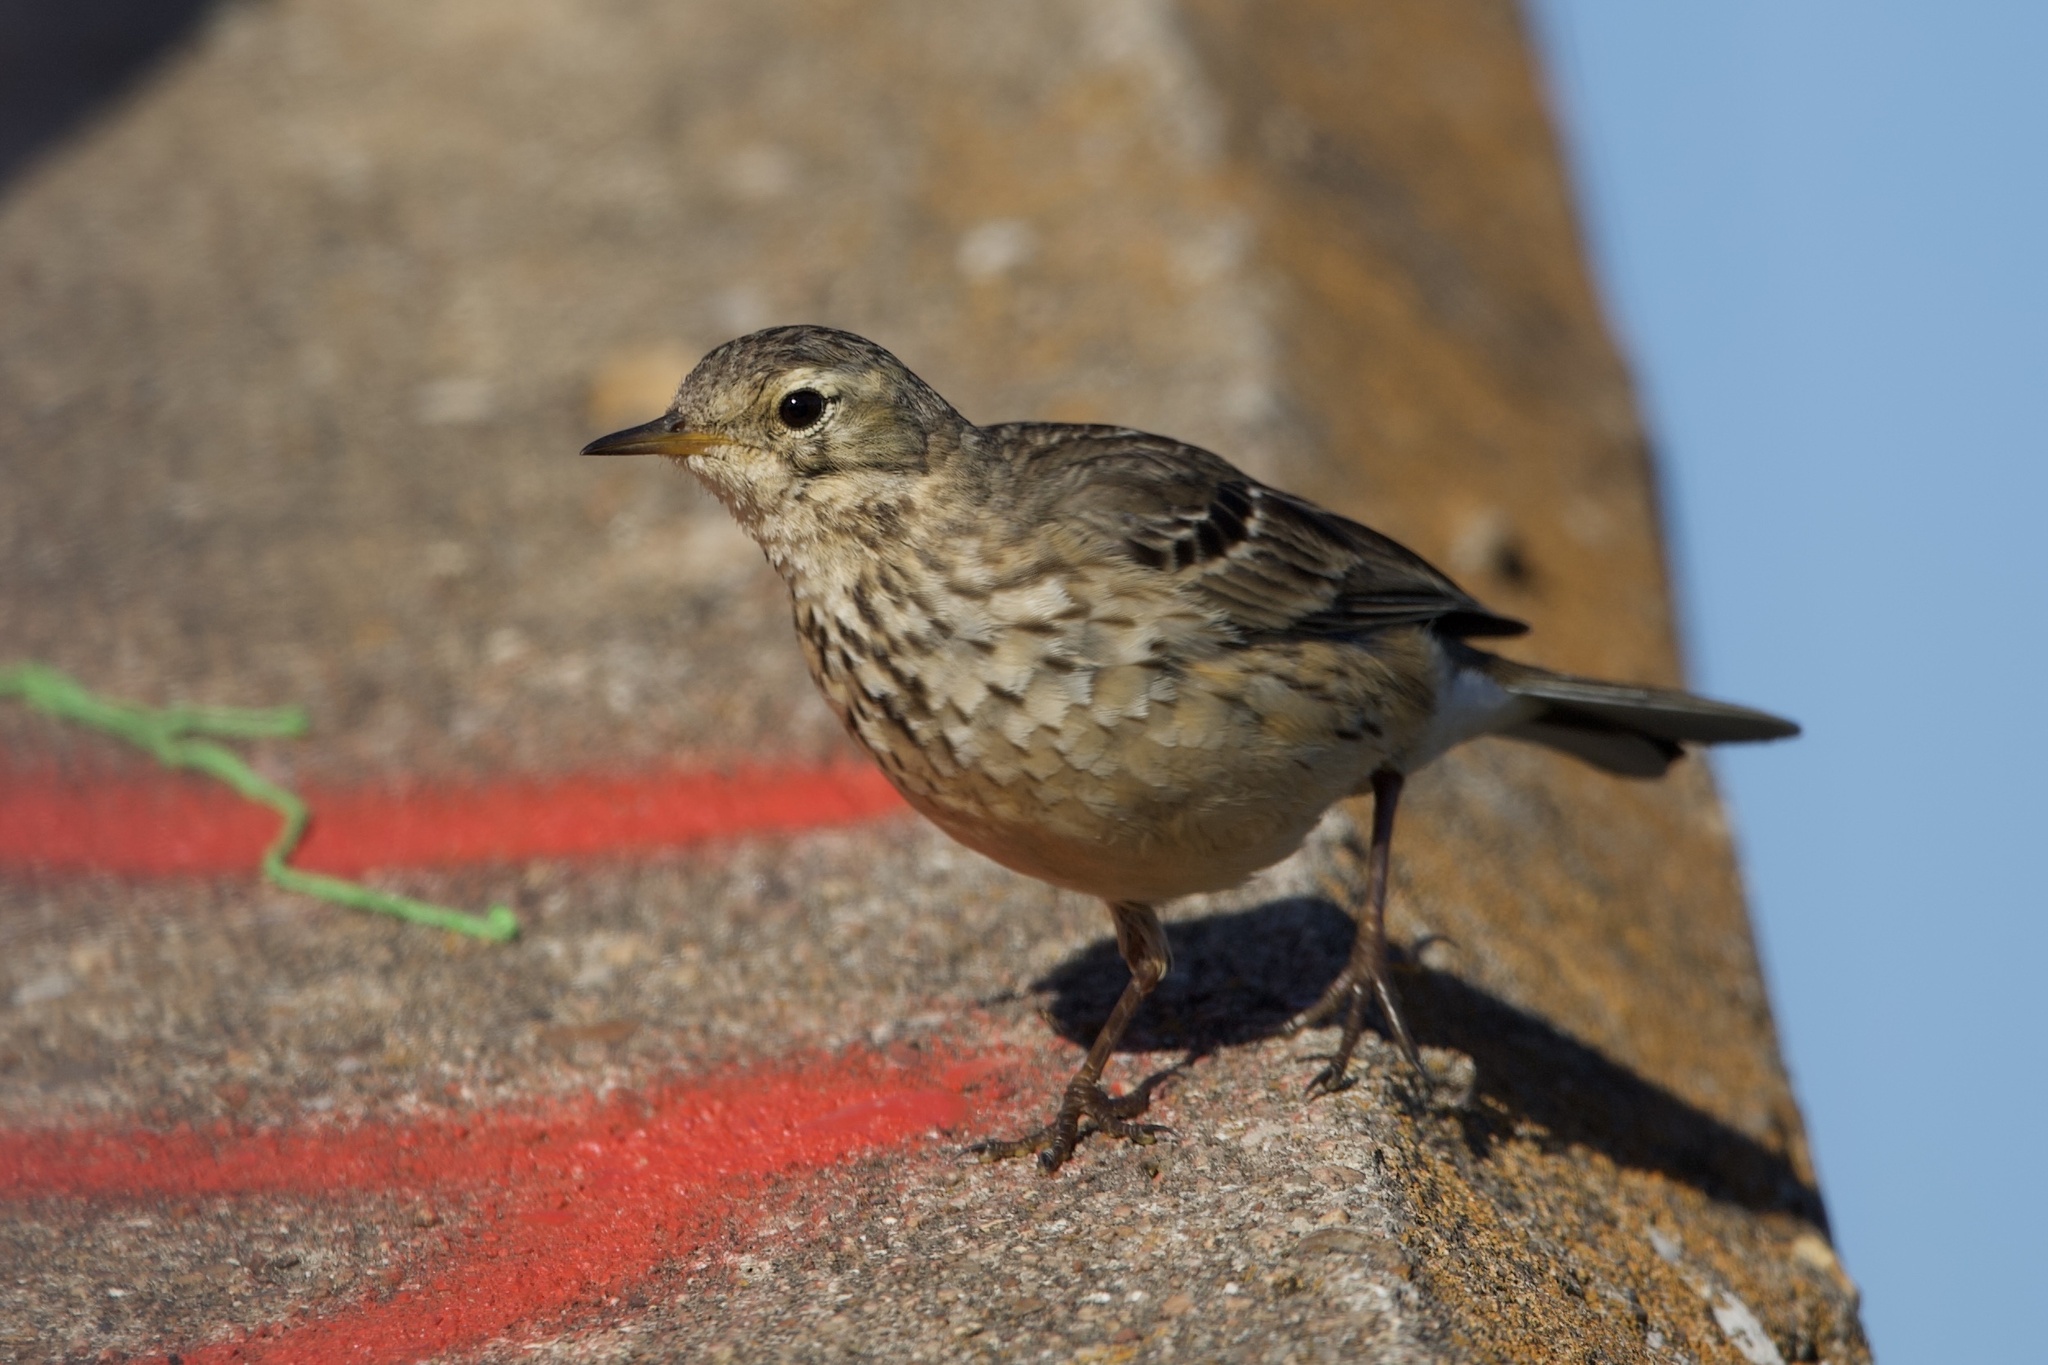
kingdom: Animalia
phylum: Chordata
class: Aves
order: Passeriformes
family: Motacillidae
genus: Anthus
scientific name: Anthus rubescens
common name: Buff-bellied pipit
